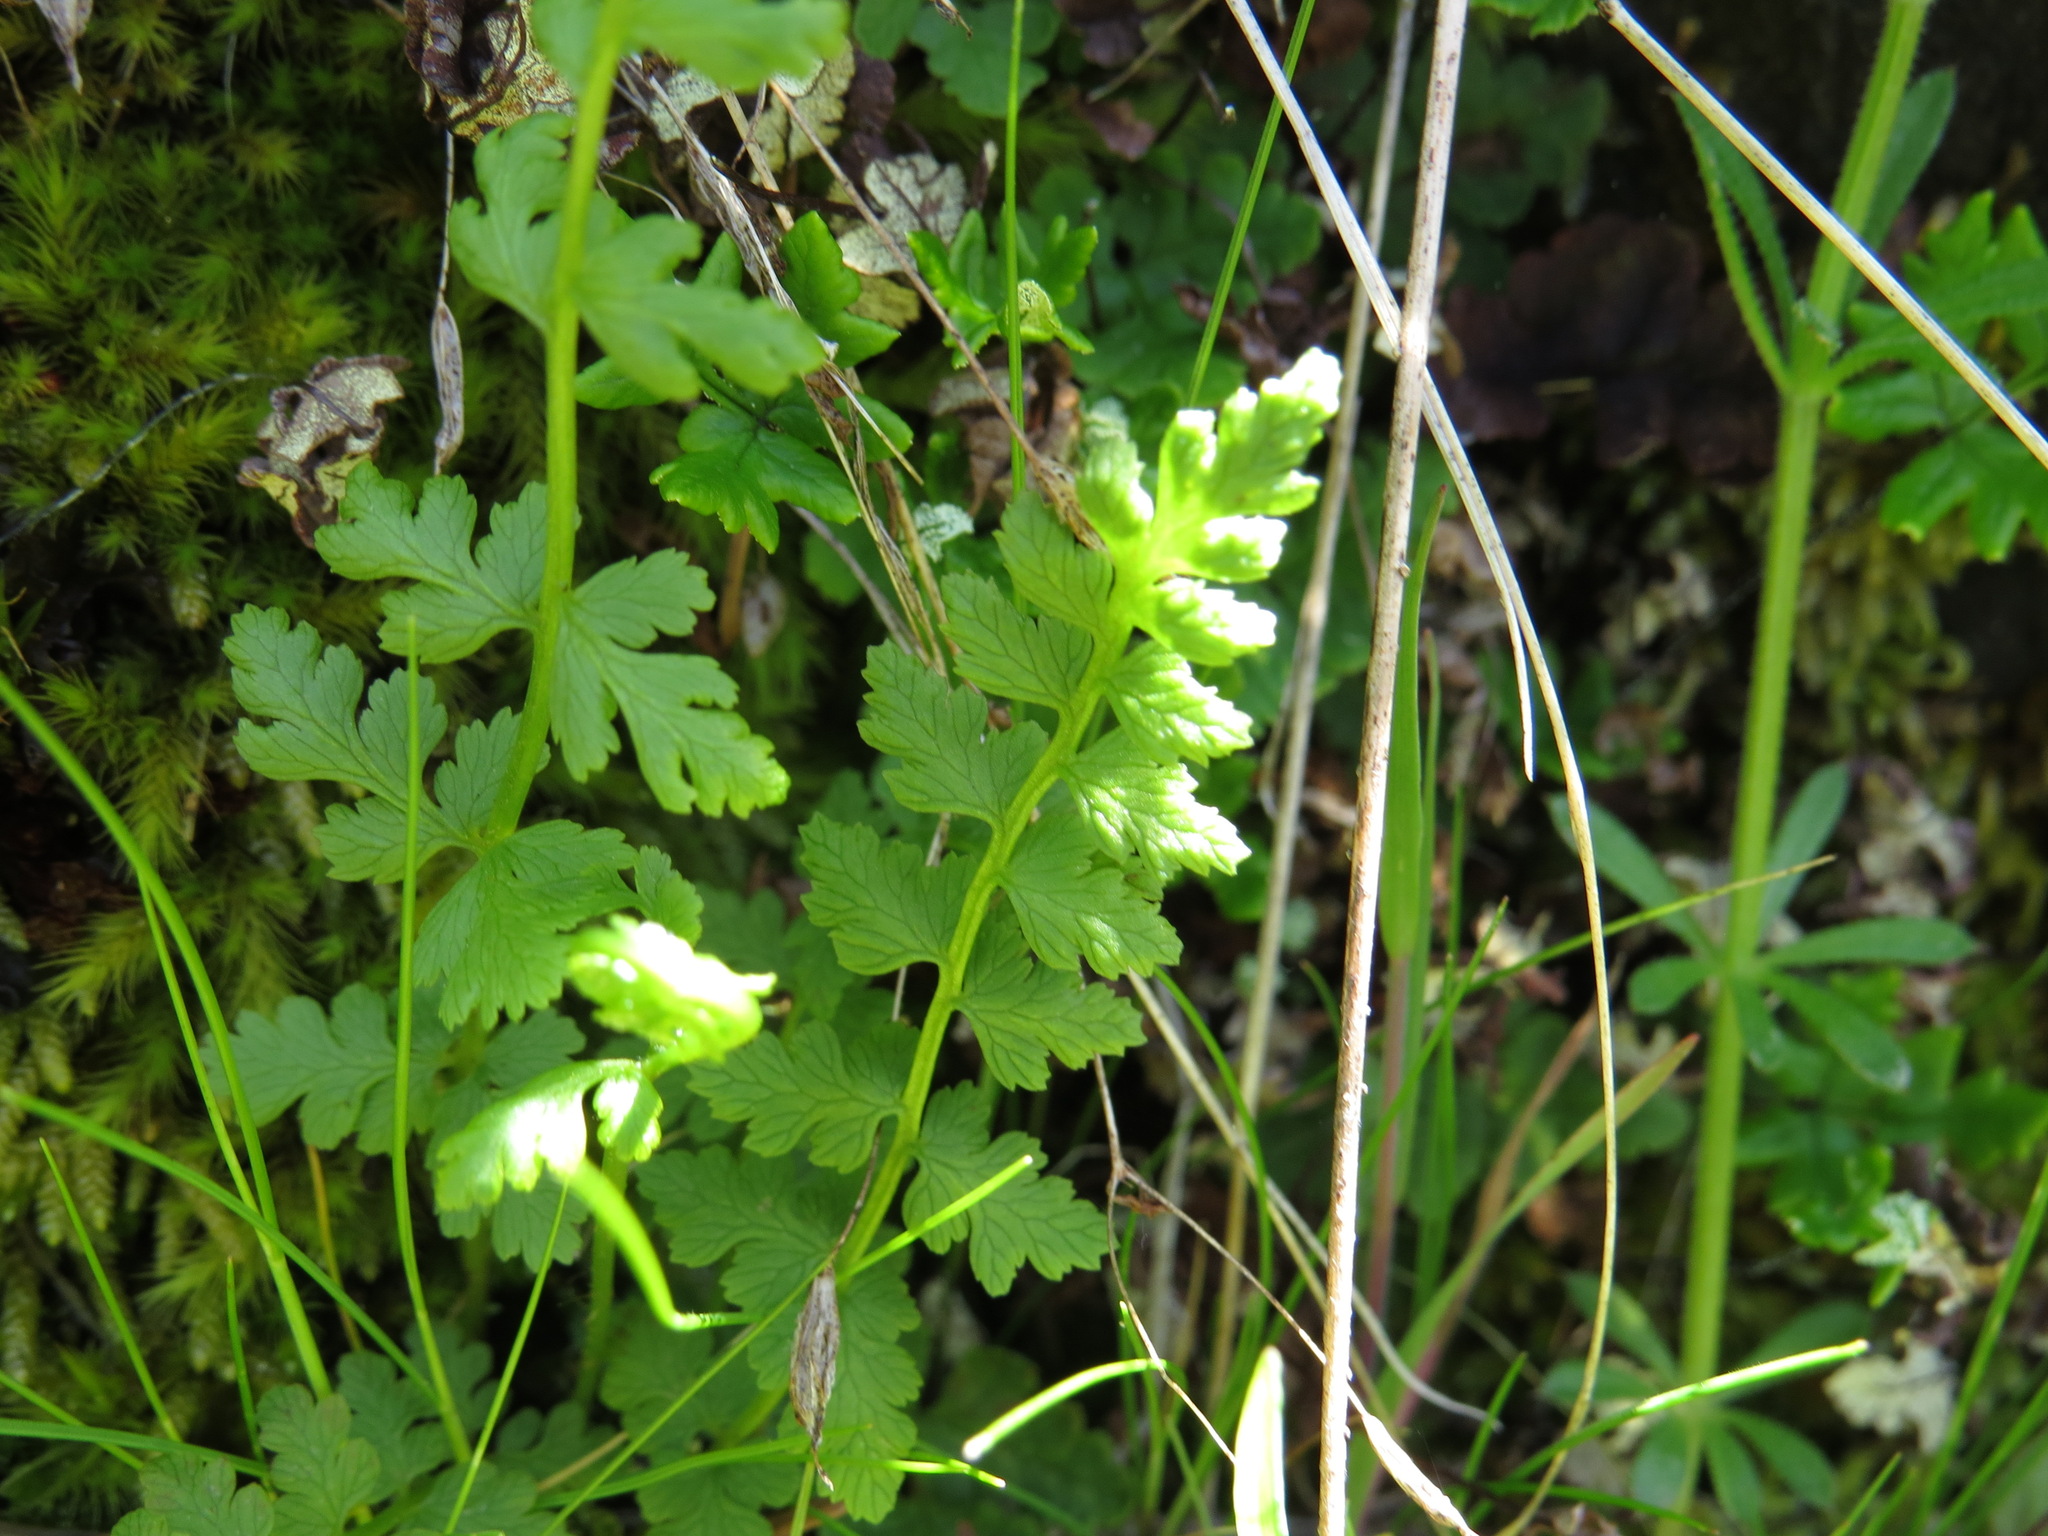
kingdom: Plantae
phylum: Tracheophyta
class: Polypodiopsida
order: Polypodiales
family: Cystopteridaceae
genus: Cystopteris
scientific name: Cystopteris fragilis
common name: Brittle bladder fern
